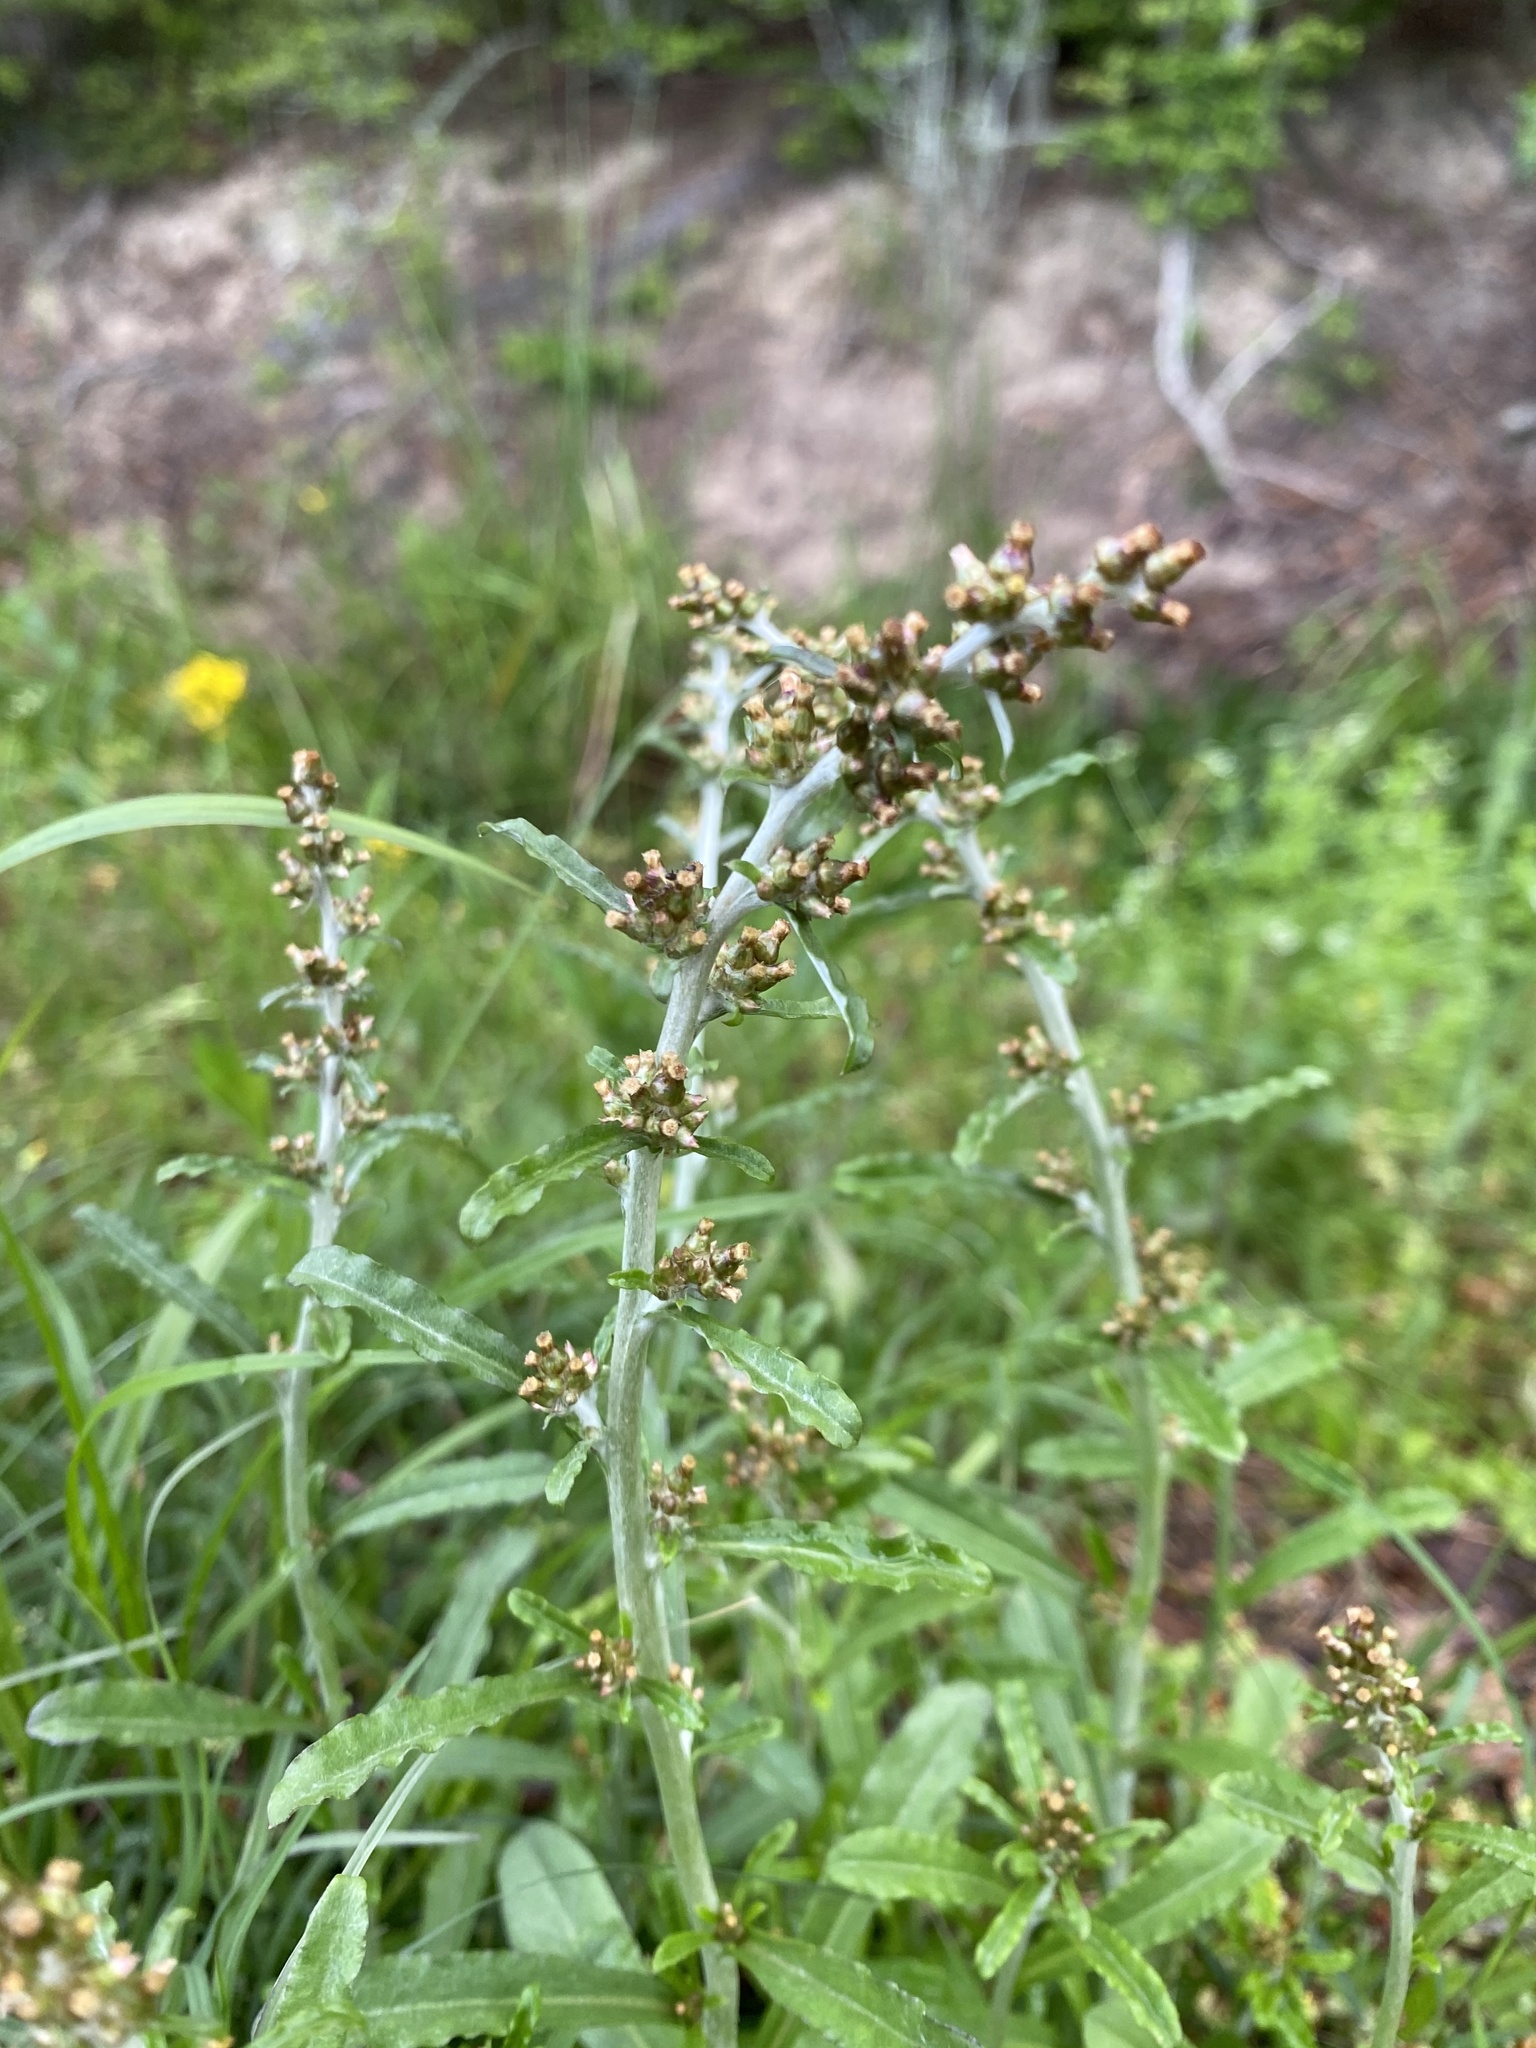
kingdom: Plantae
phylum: Tracheophyta
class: Magnoliopsida
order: Asterales
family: Asteraceae
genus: Gamochaeta
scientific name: Gamochaeta americana
